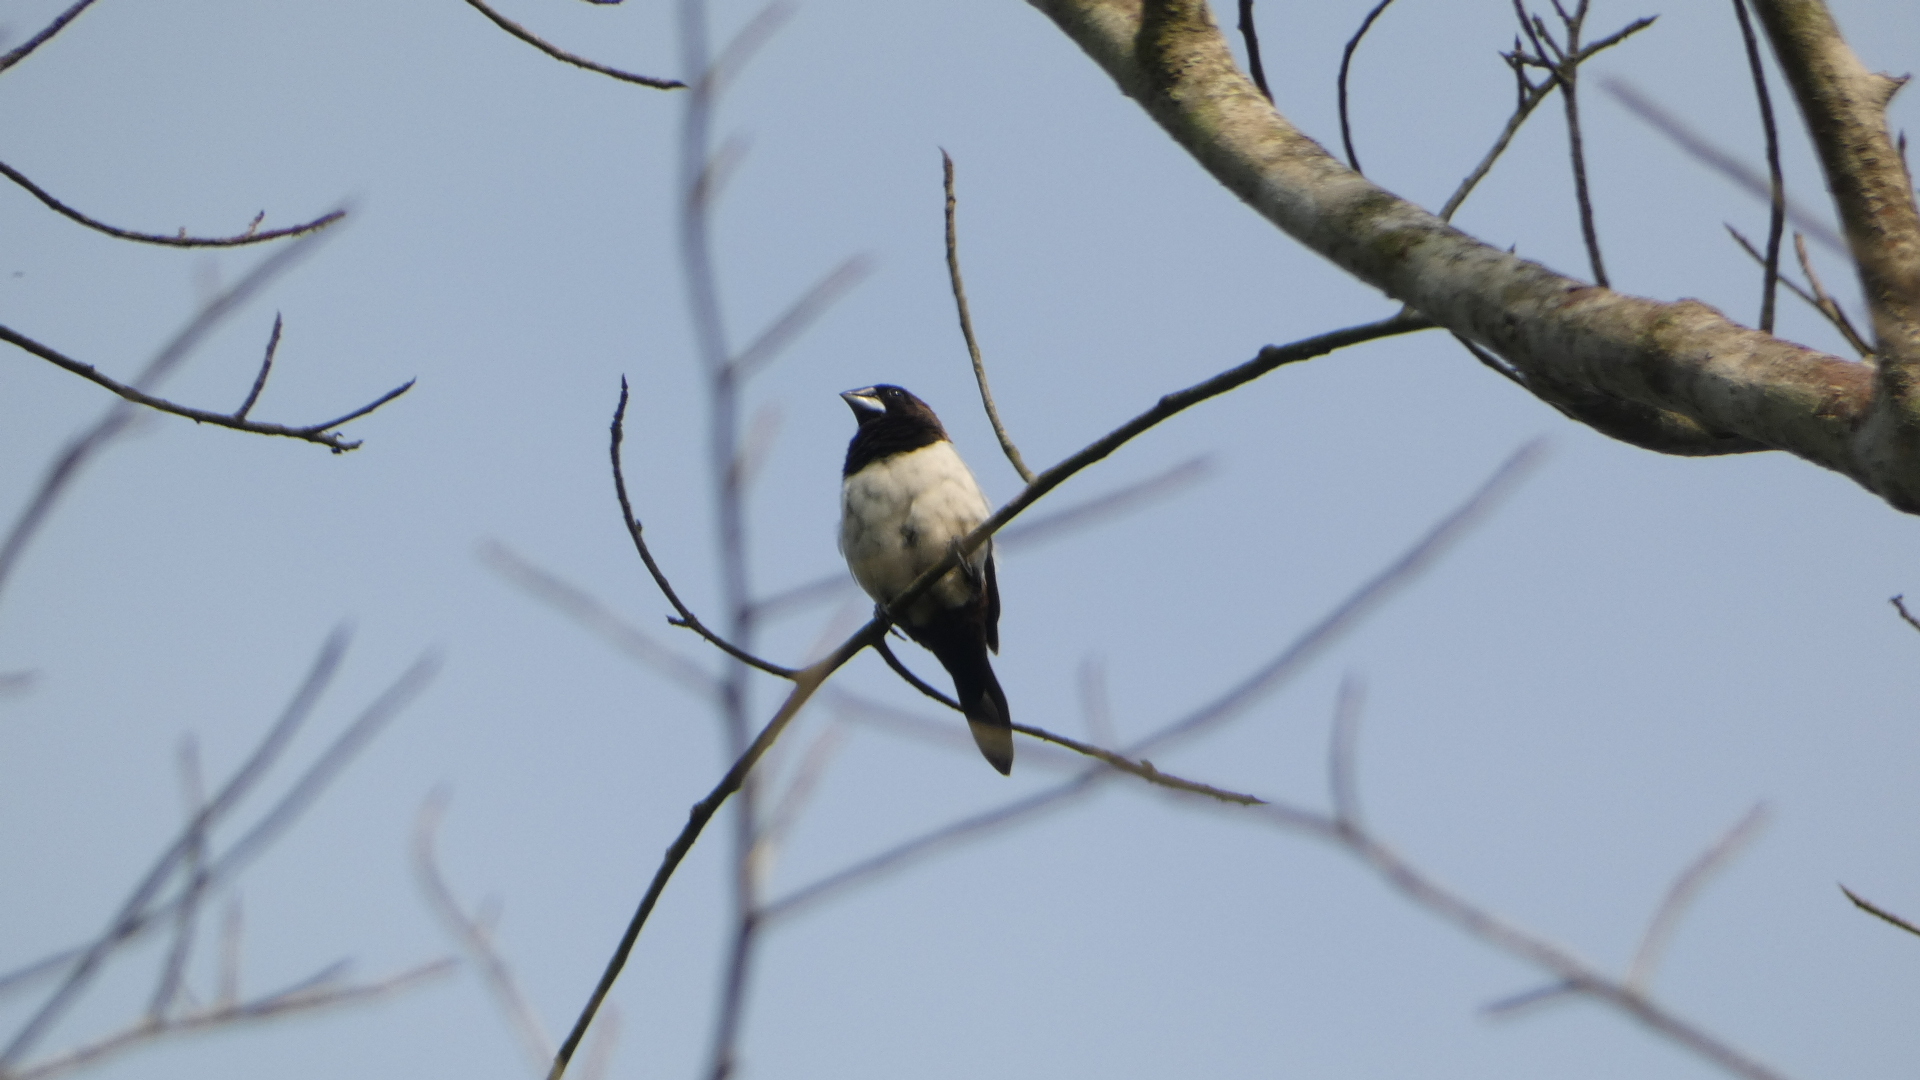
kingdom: Animalia
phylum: Chordata
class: Aves
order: Passeriformes
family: Estrildidae
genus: Lonchura
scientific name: Lonchura striata
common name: White-rumped munia
